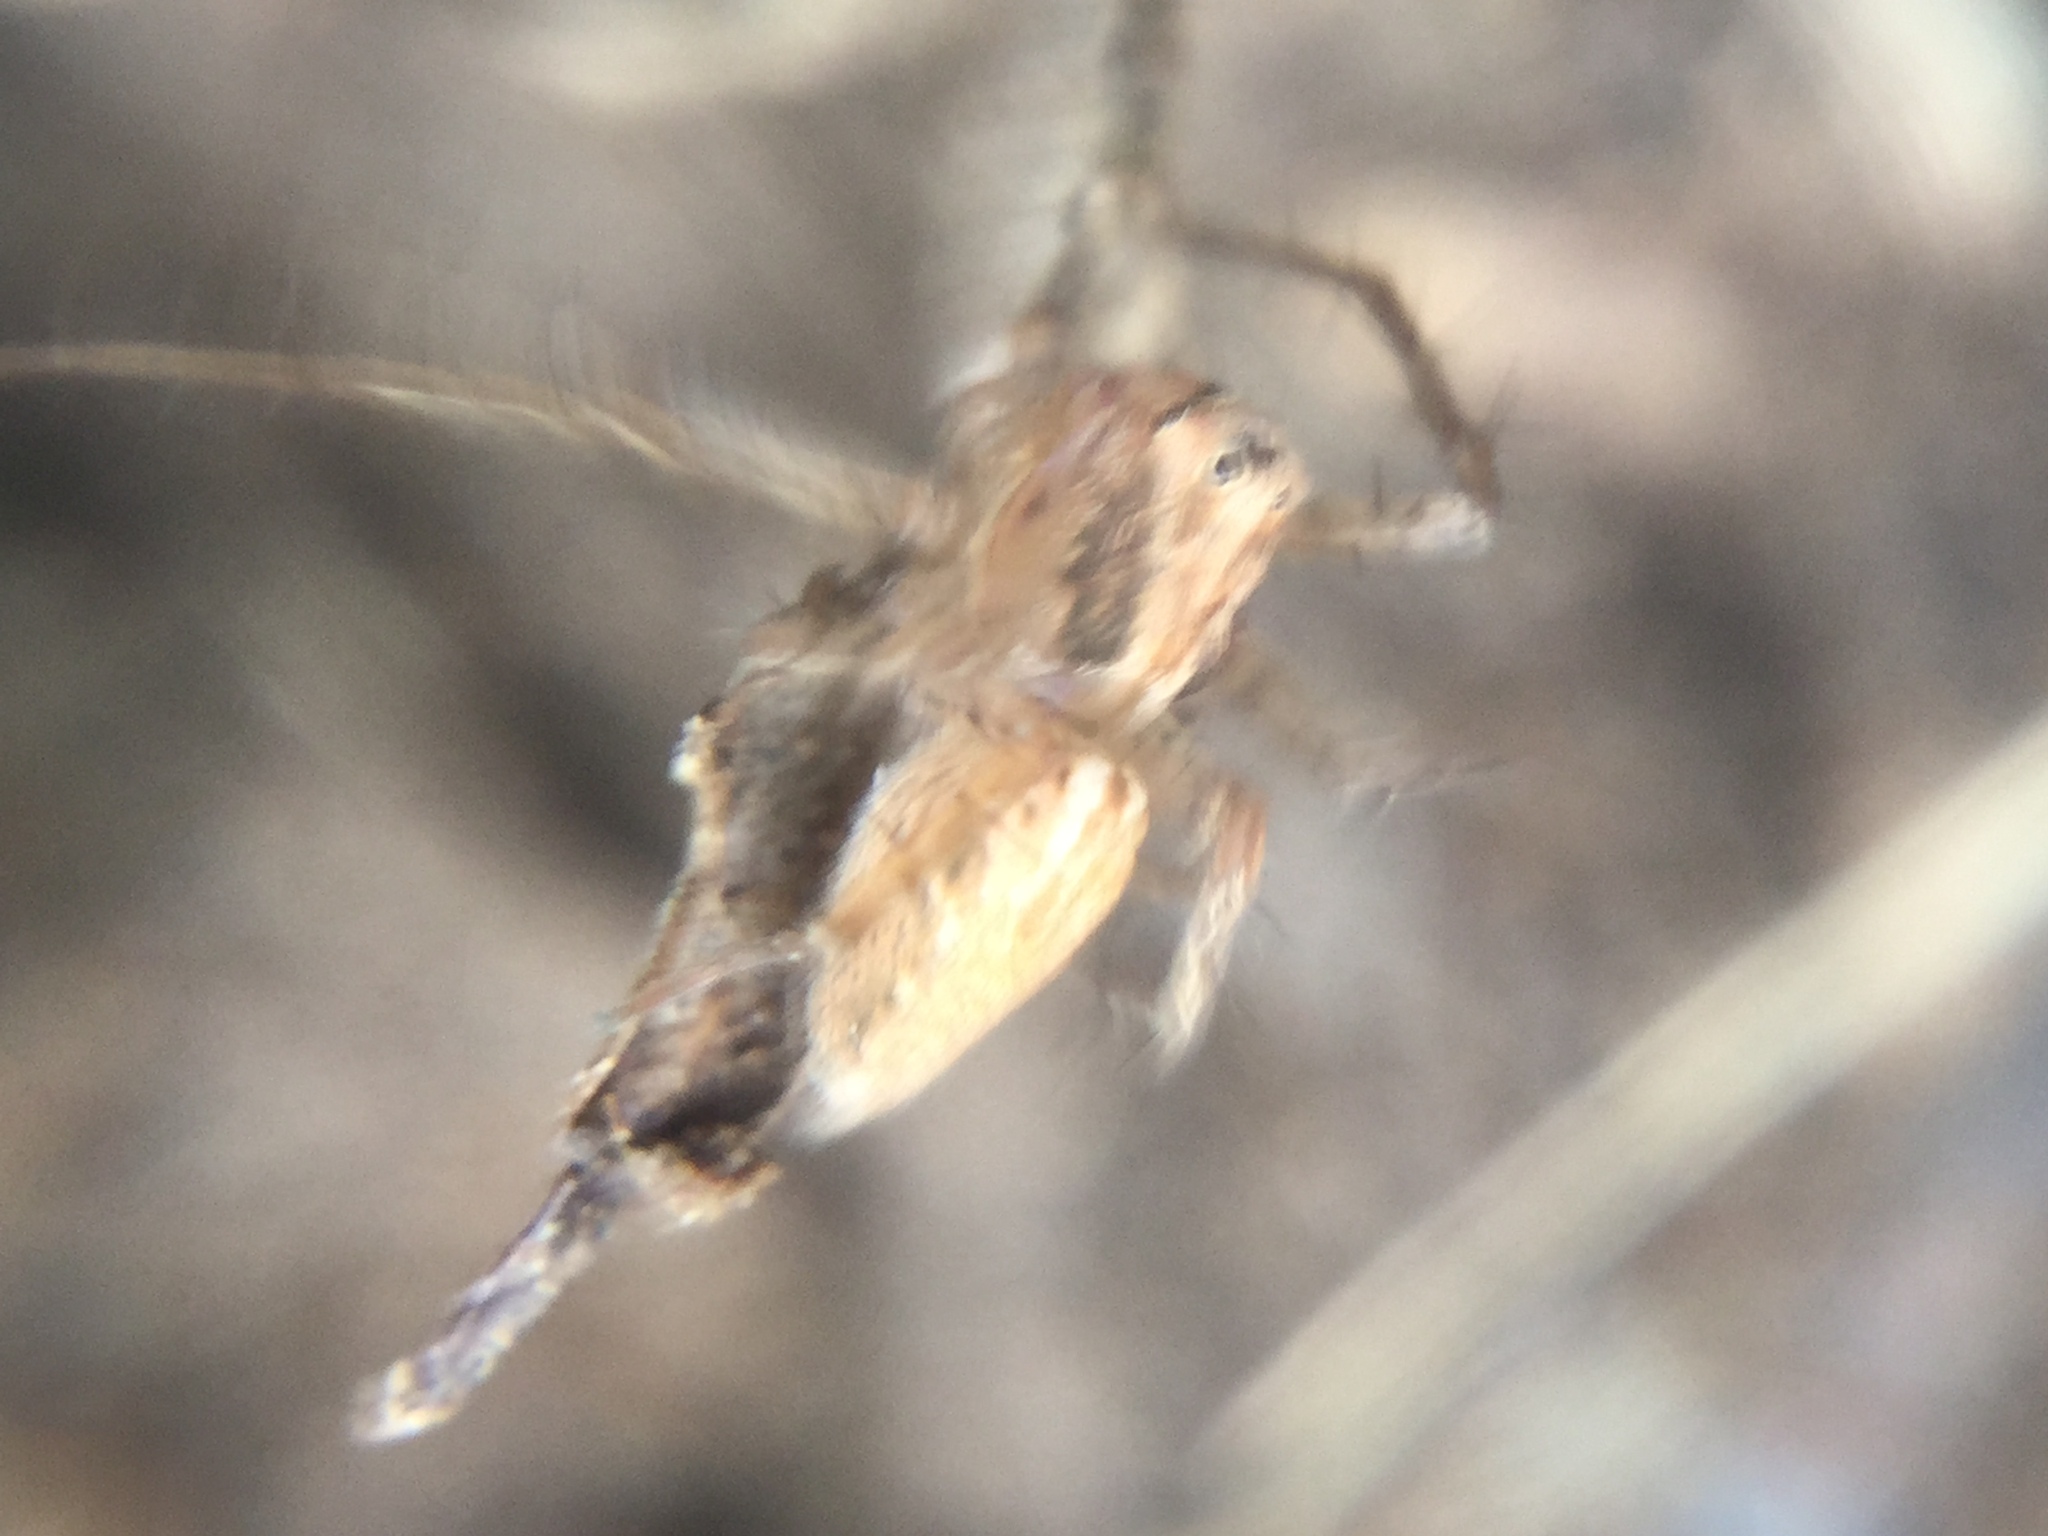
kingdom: Animalia
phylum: Arthropoda
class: Arachnida
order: Araneae
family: Oxyopidae
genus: Oxyopes
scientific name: Oxyopes aglossus
